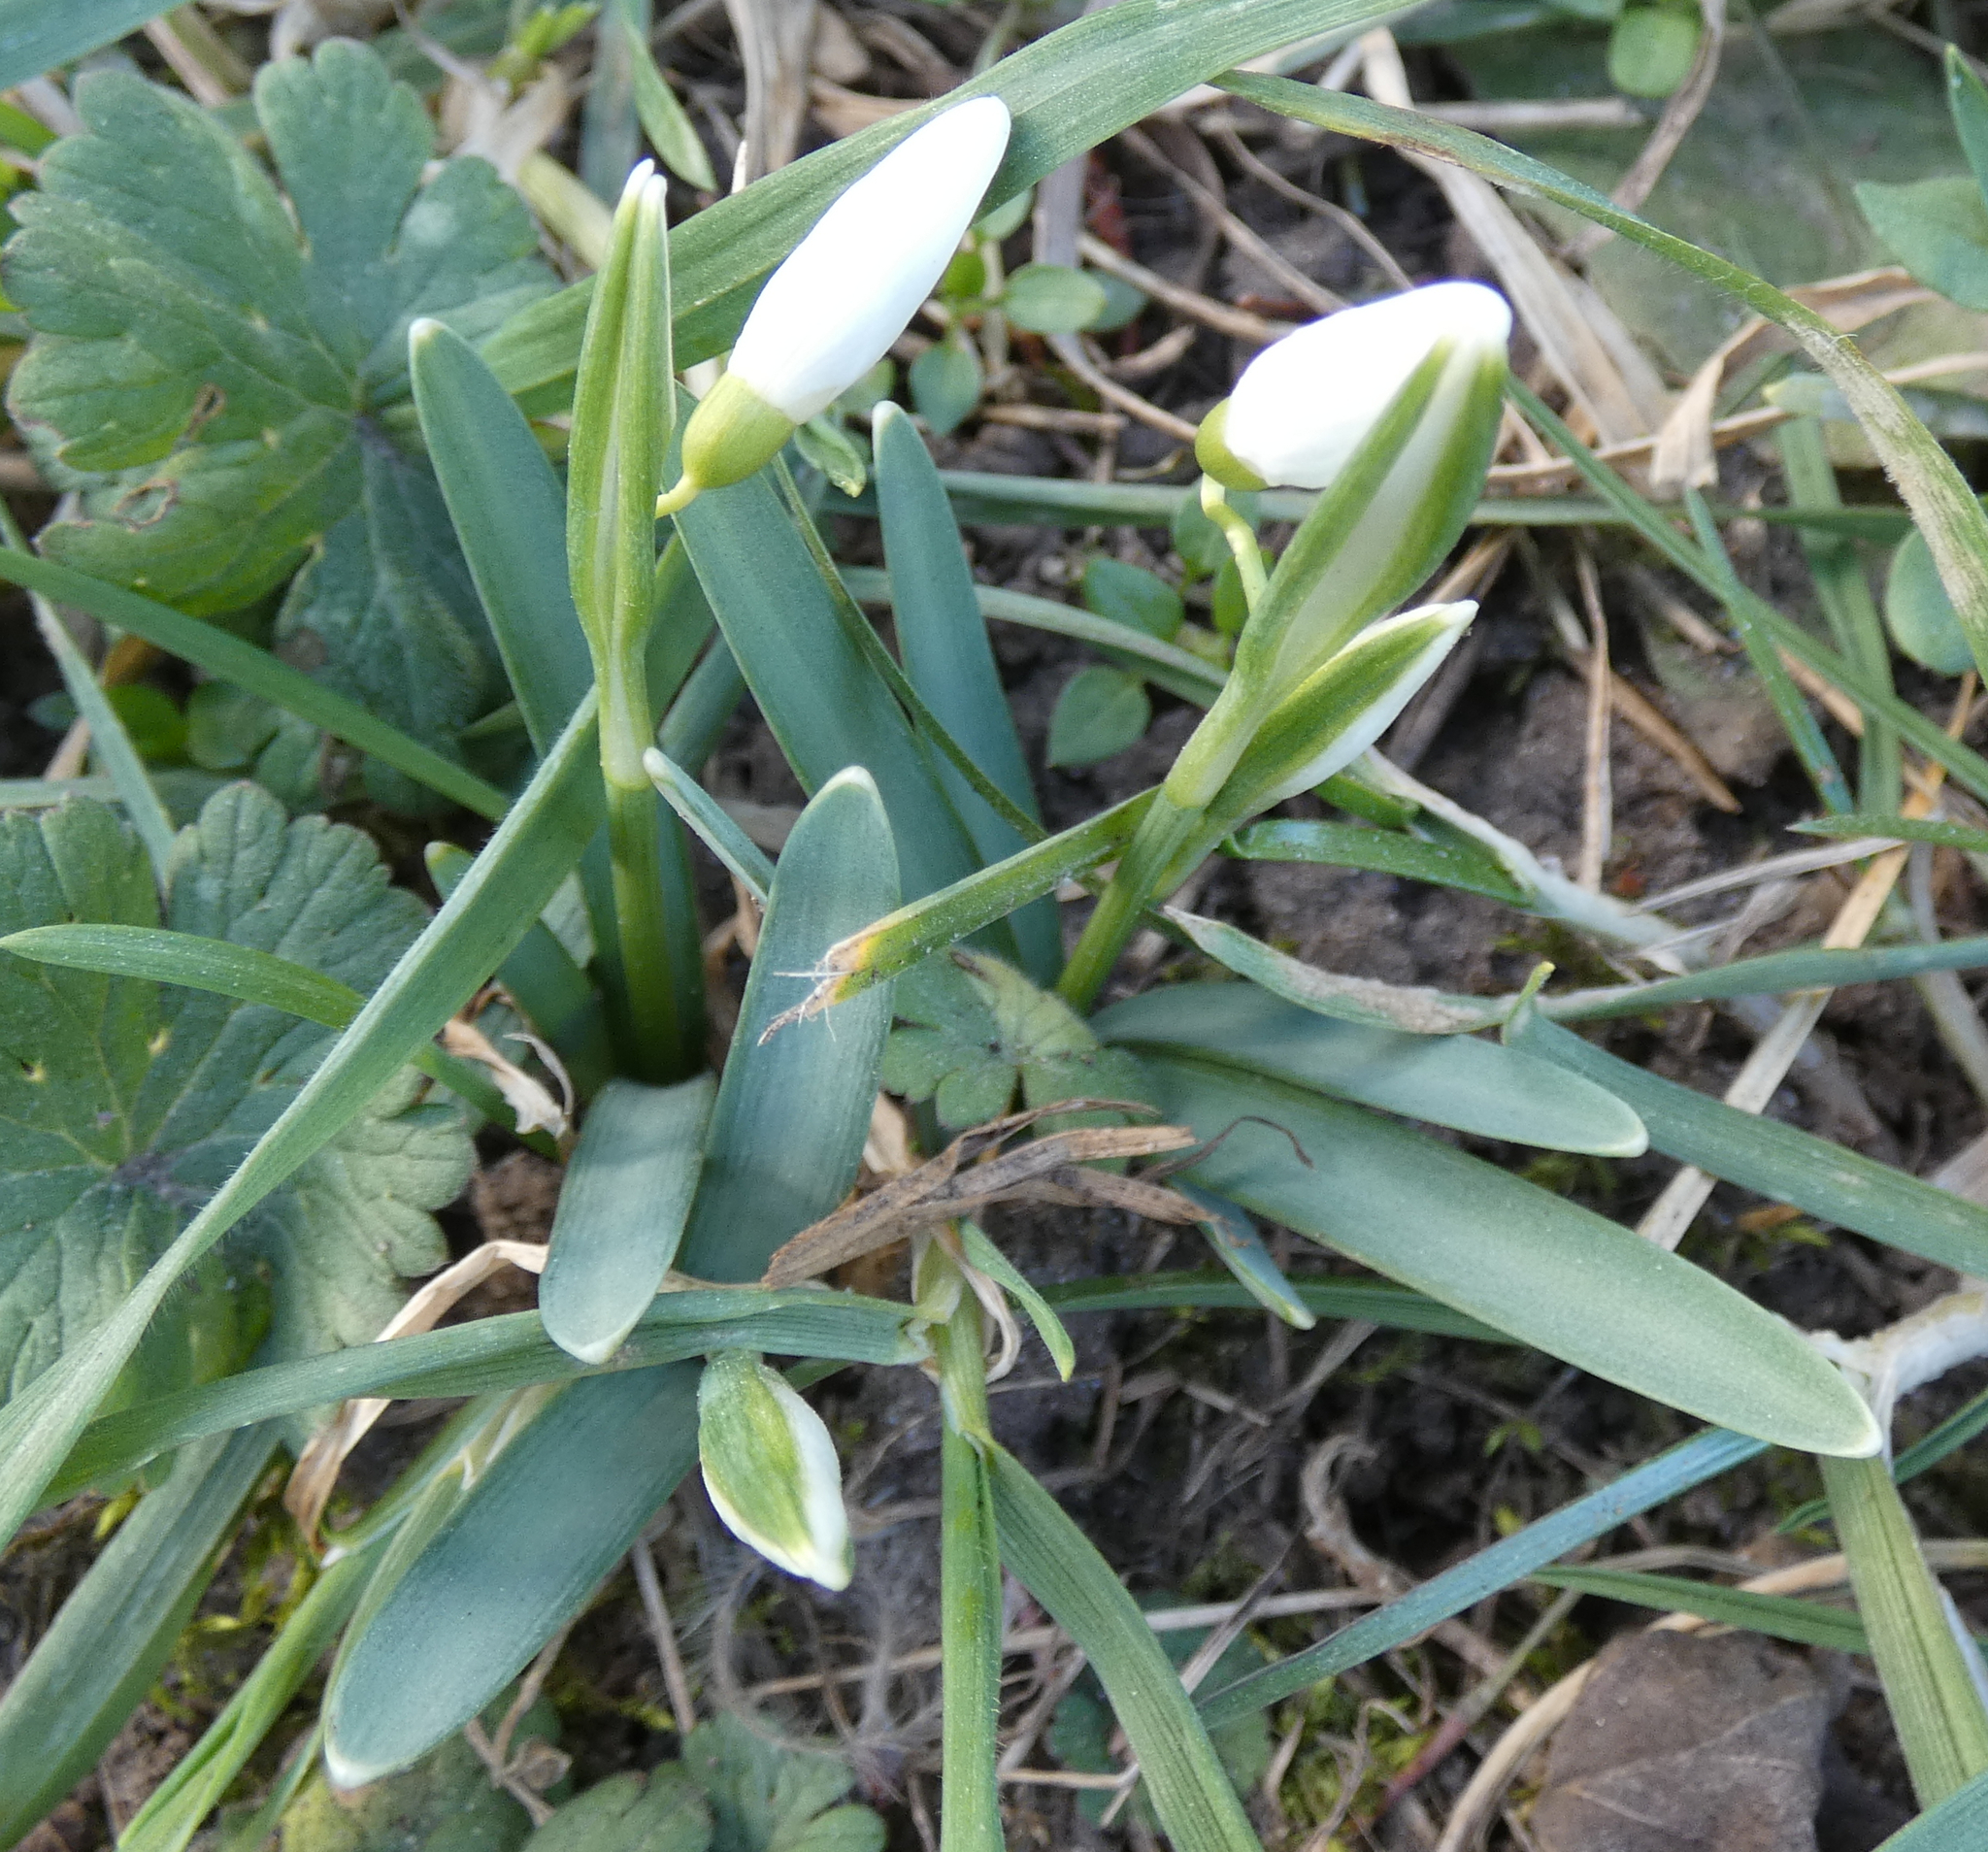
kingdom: Plantae
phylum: Tracheophyta
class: Liliopsida
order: Asparagales
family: Amaryllidaceae
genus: Galanthus
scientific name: Galanthus nivalis
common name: Snowdrop
